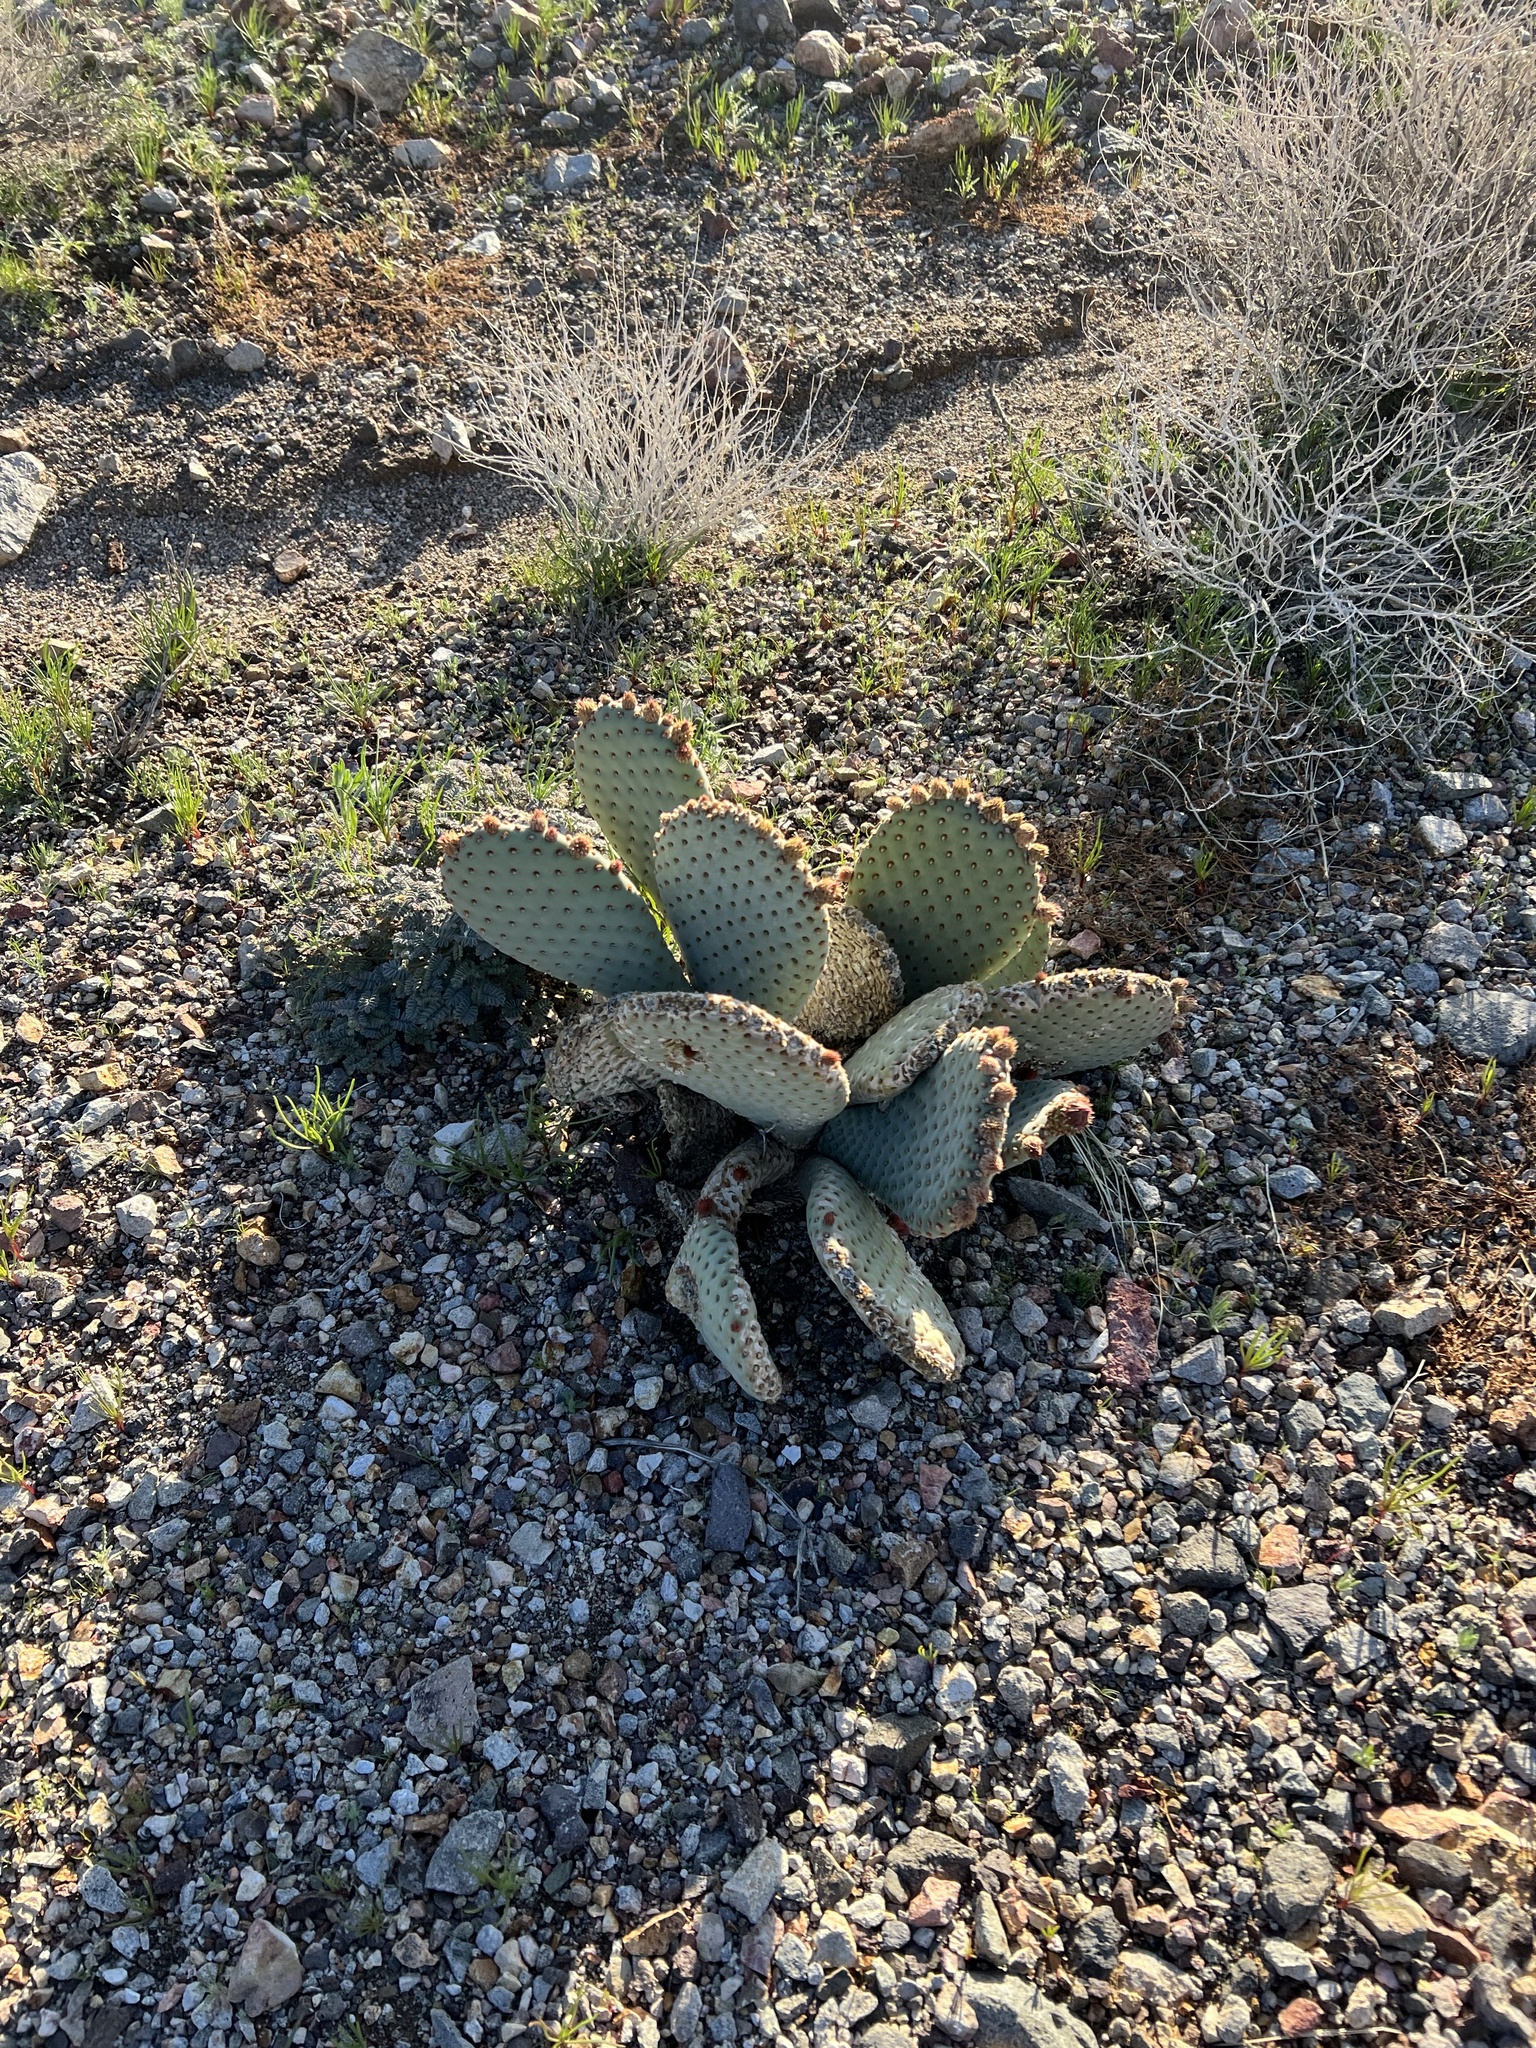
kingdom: Plantae
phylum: Tracheophyta
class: Magnoliopsida
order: Caryophyllales
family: Cactaceae
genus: Opuntia
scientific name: Opuntia basilaris
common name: Beavertail prickly-pear
